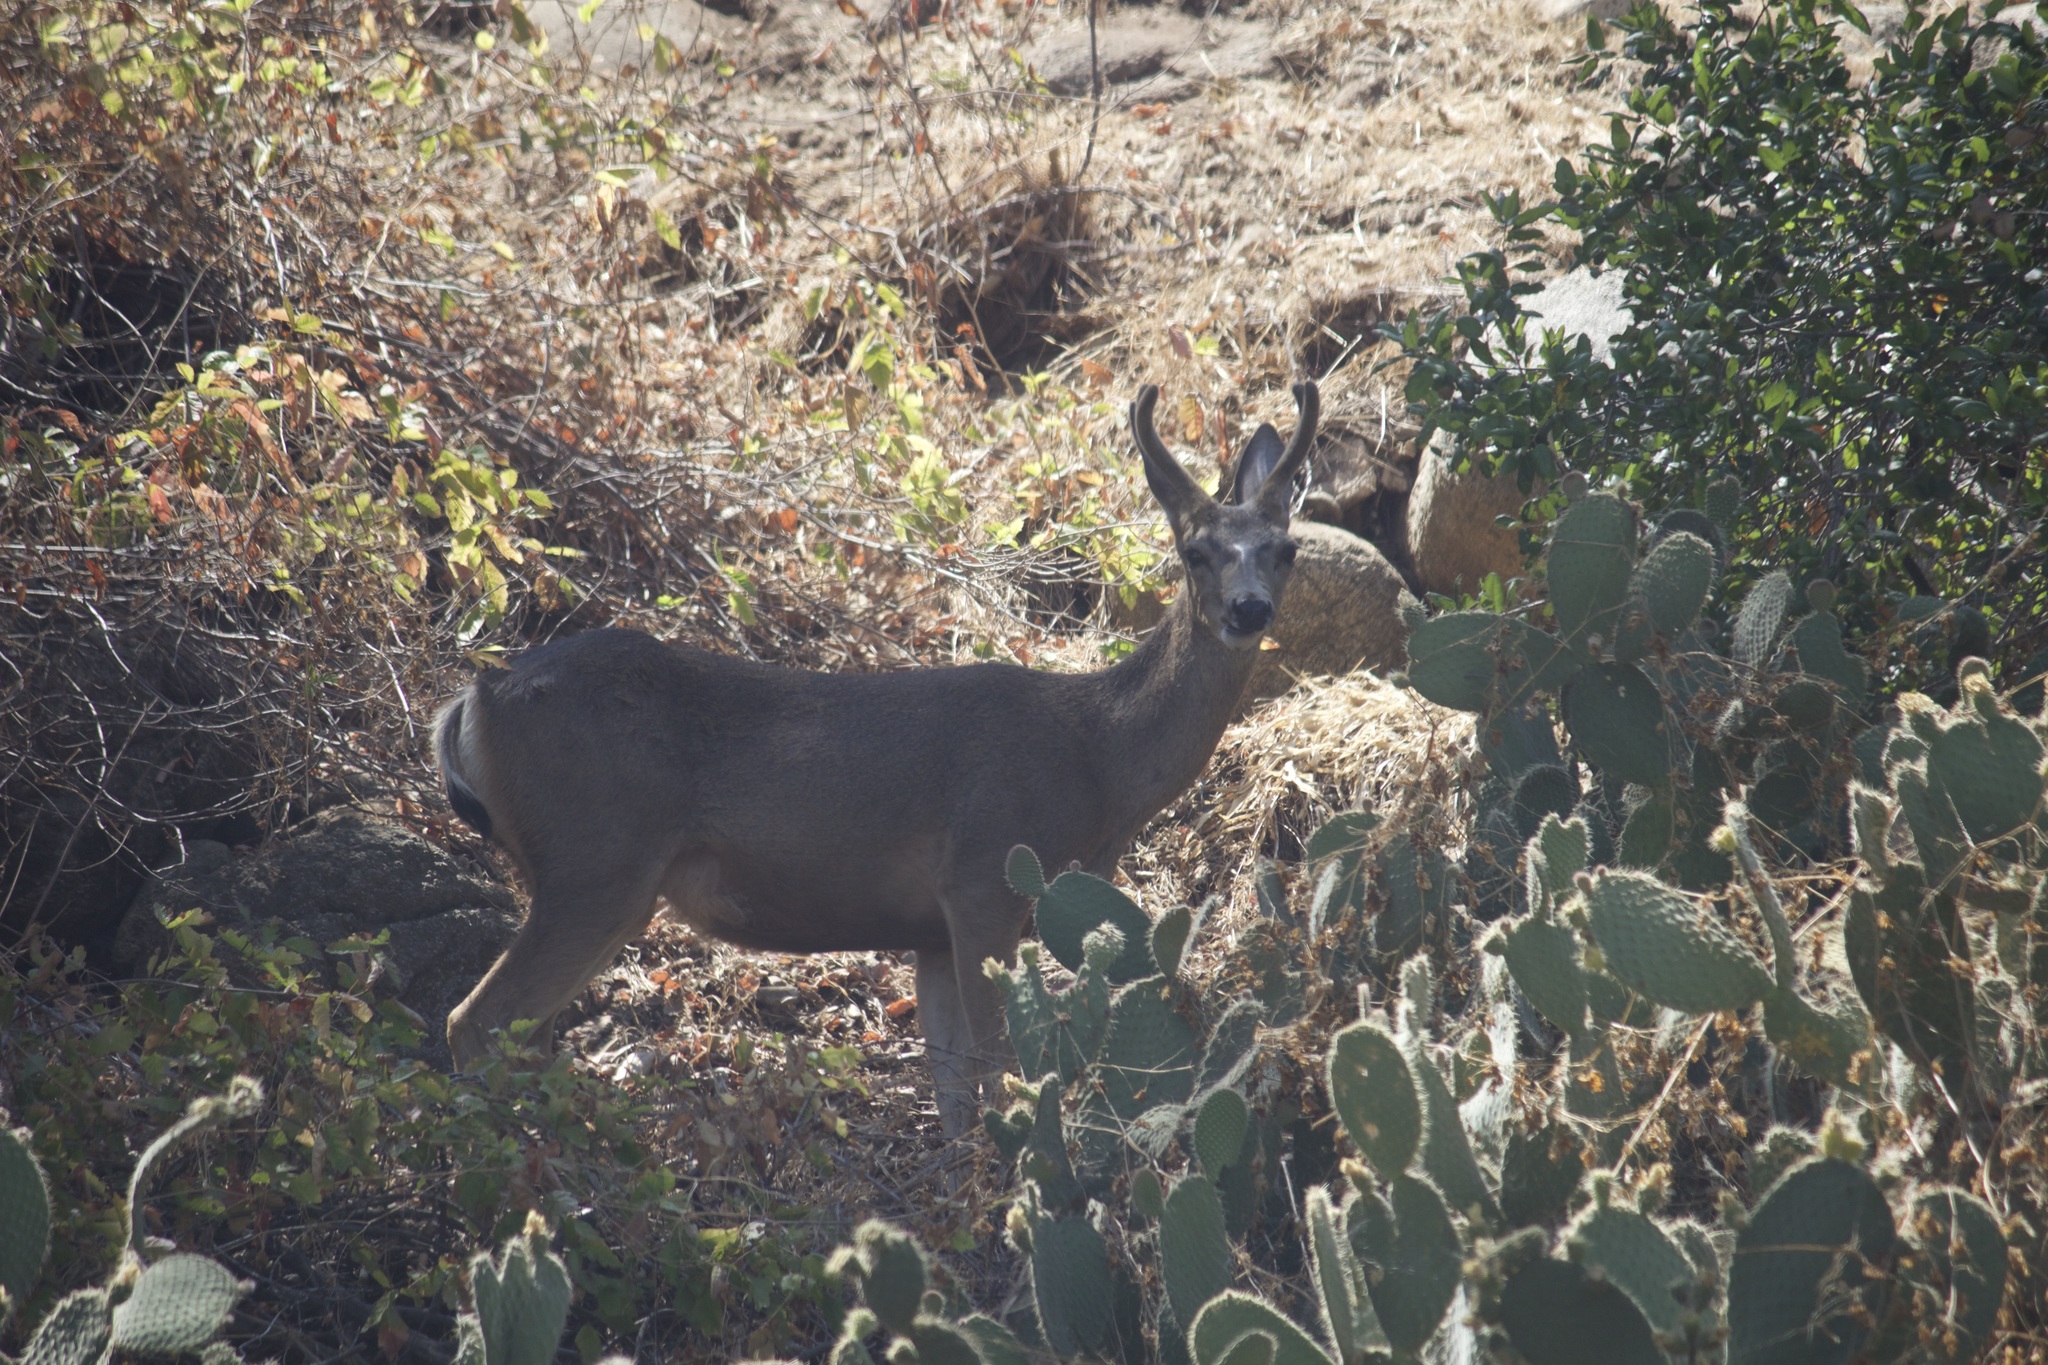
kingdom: Animalia
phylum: Chordata
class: Mammalia
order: Artiodactyla
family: Cervidae
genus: Odocoileus
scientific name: Odocoileus hemionus
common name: Mule deer
